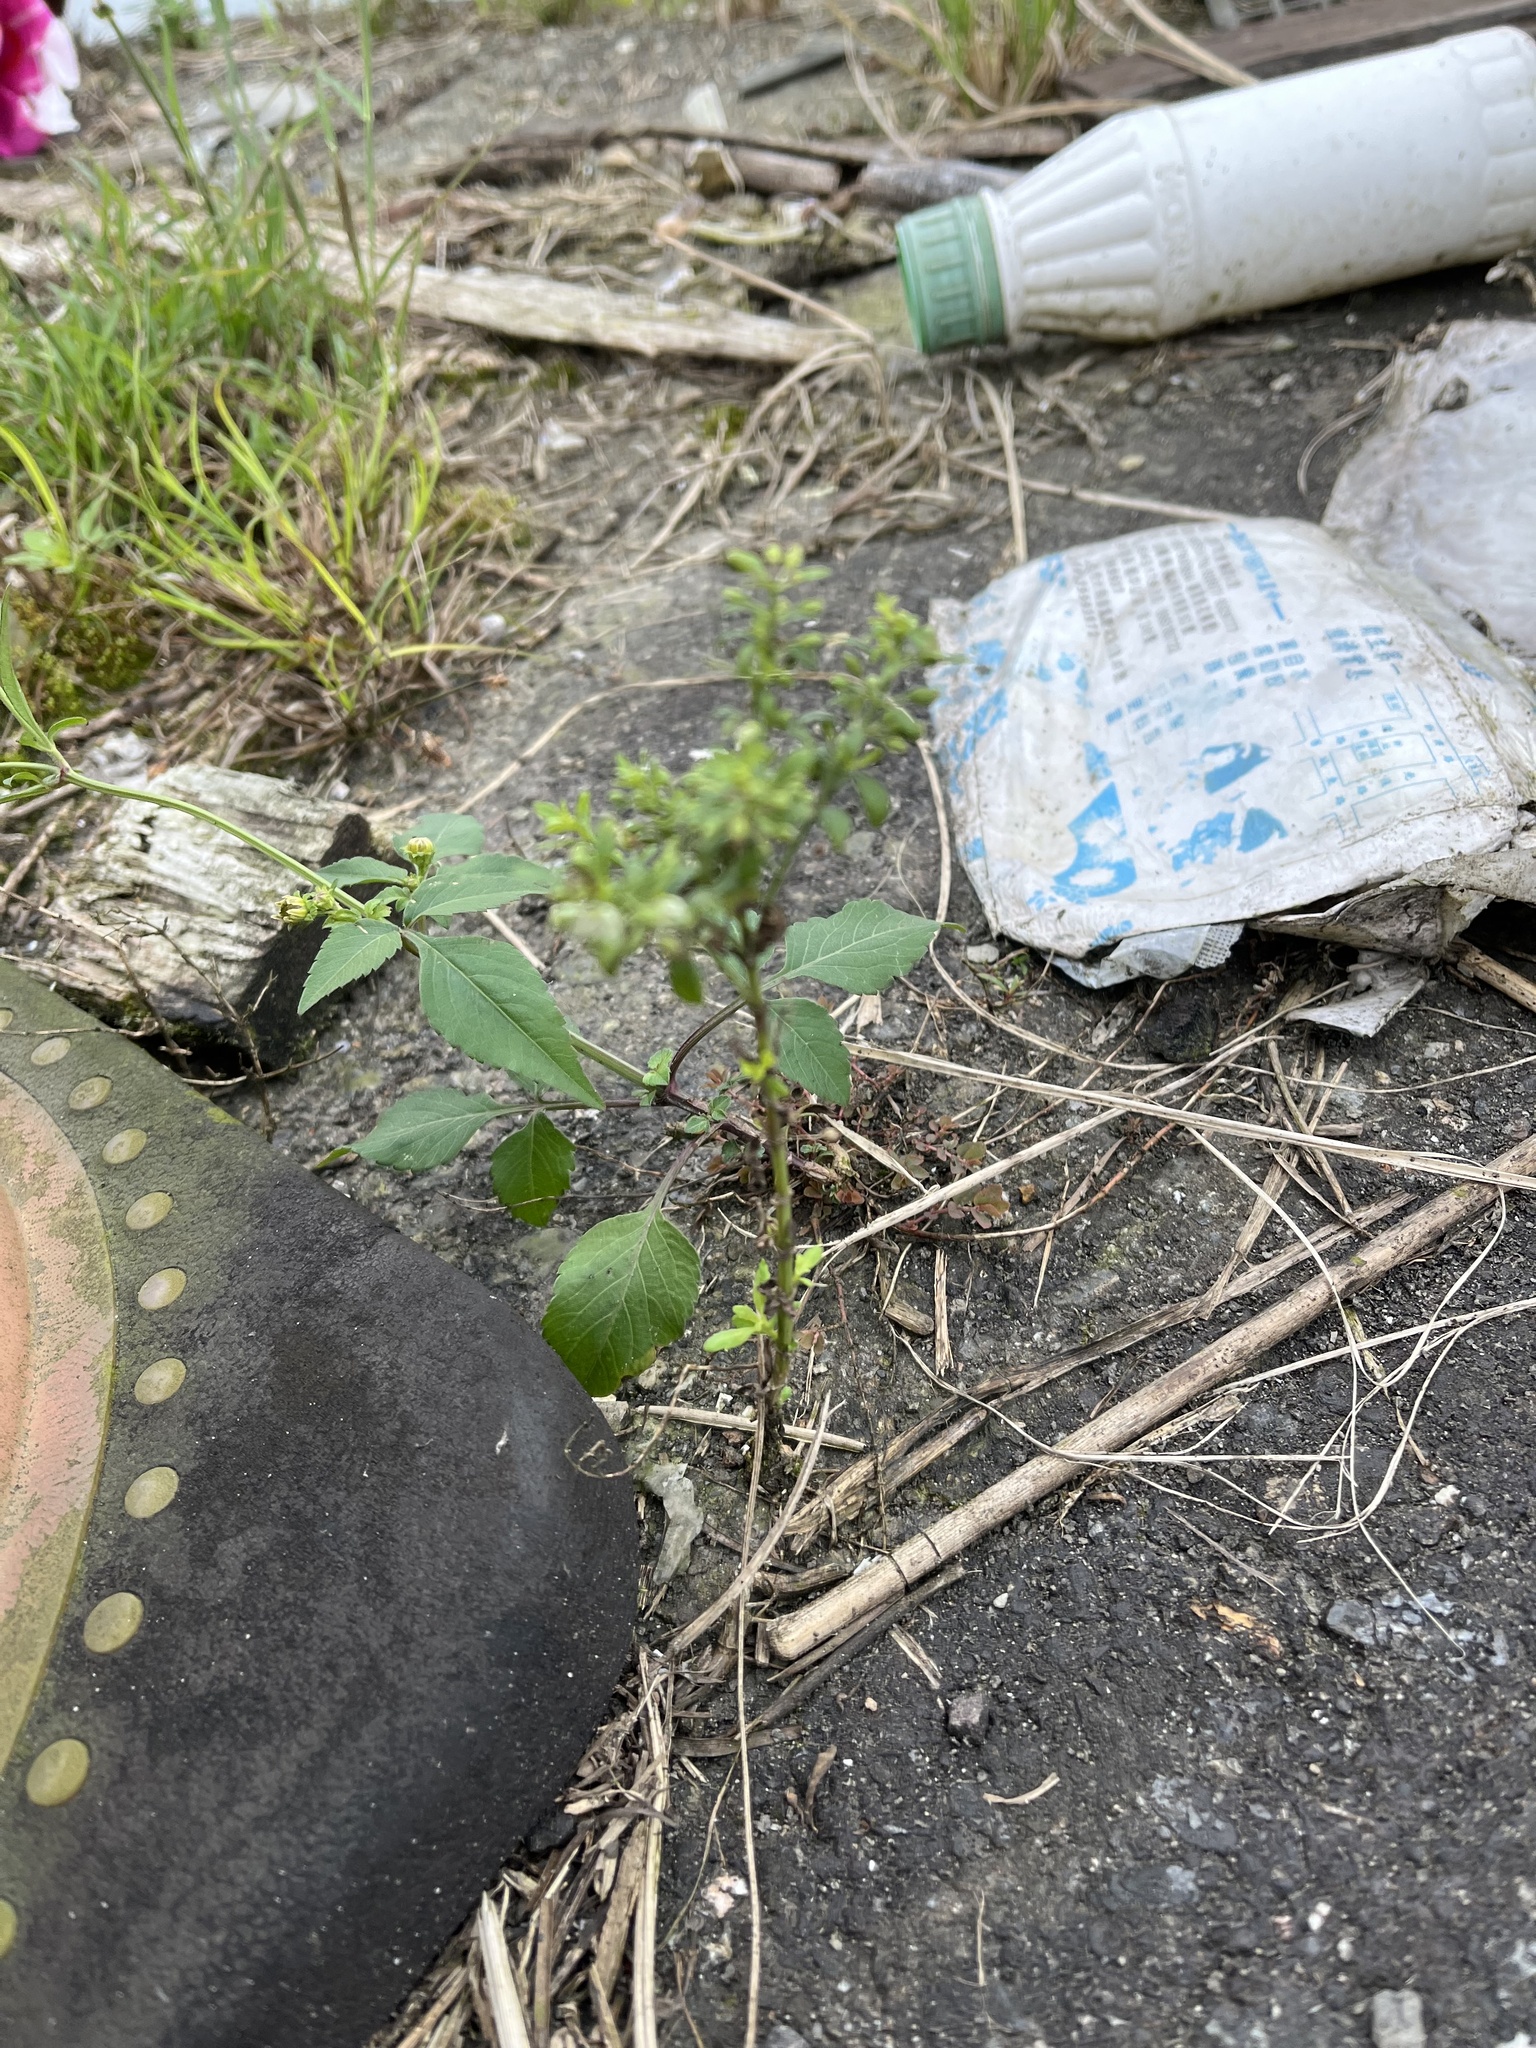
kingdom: Plantae
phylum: Tracheophyta
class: Magnoliopsida
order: Lamiales
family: Plantaginaceae
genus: Scoparia
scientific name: Scoparia dulcis
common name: Scoparia-weed
